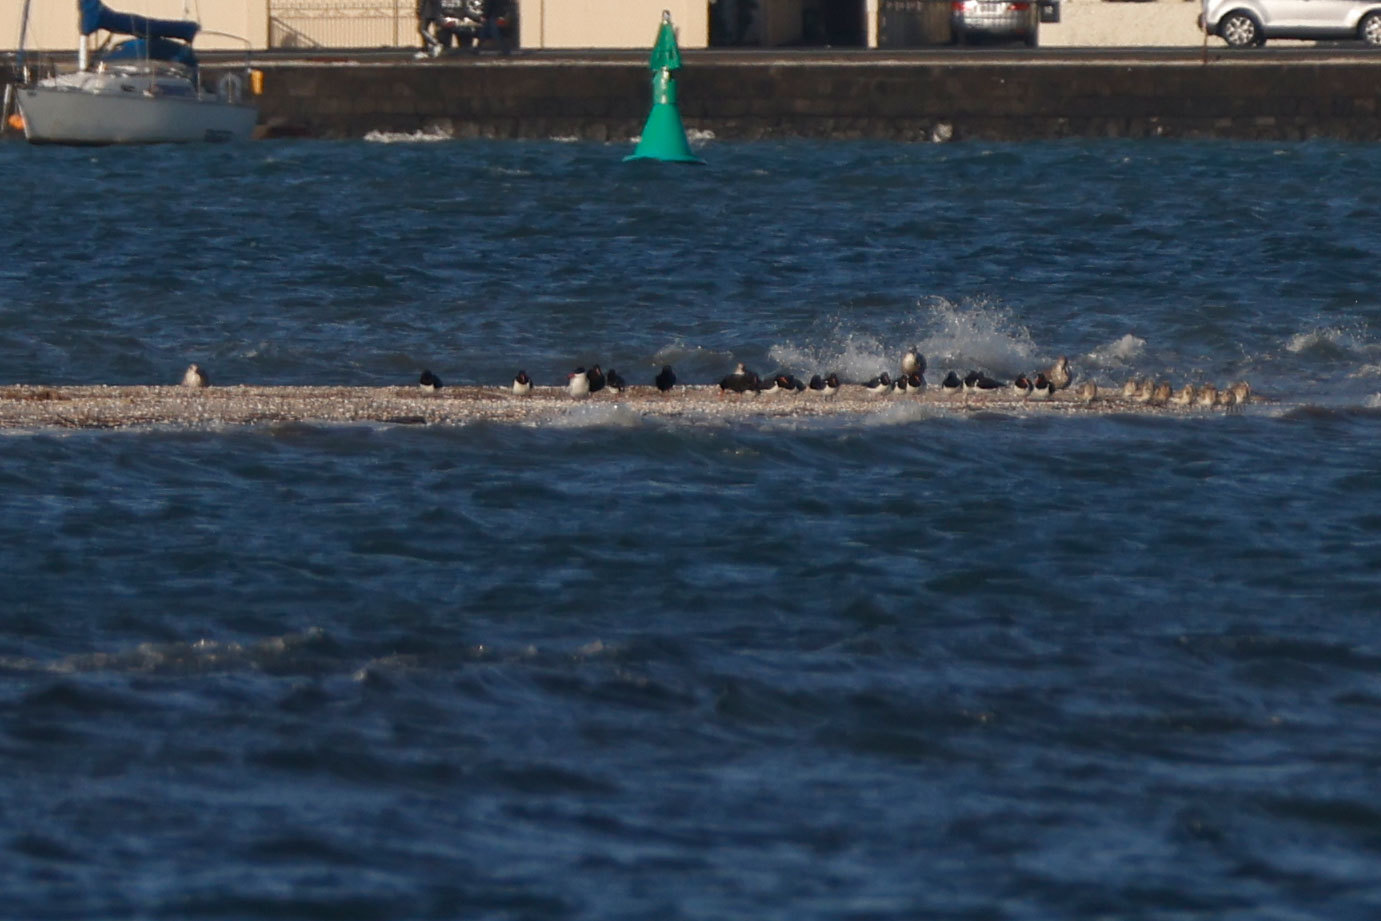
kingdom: Animalia
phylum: Chordata
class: Aves
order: Charadriiformes
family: Scolopacidae
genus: Limosa
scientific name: Limosa lapponica
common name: Bar-tailed godwit
